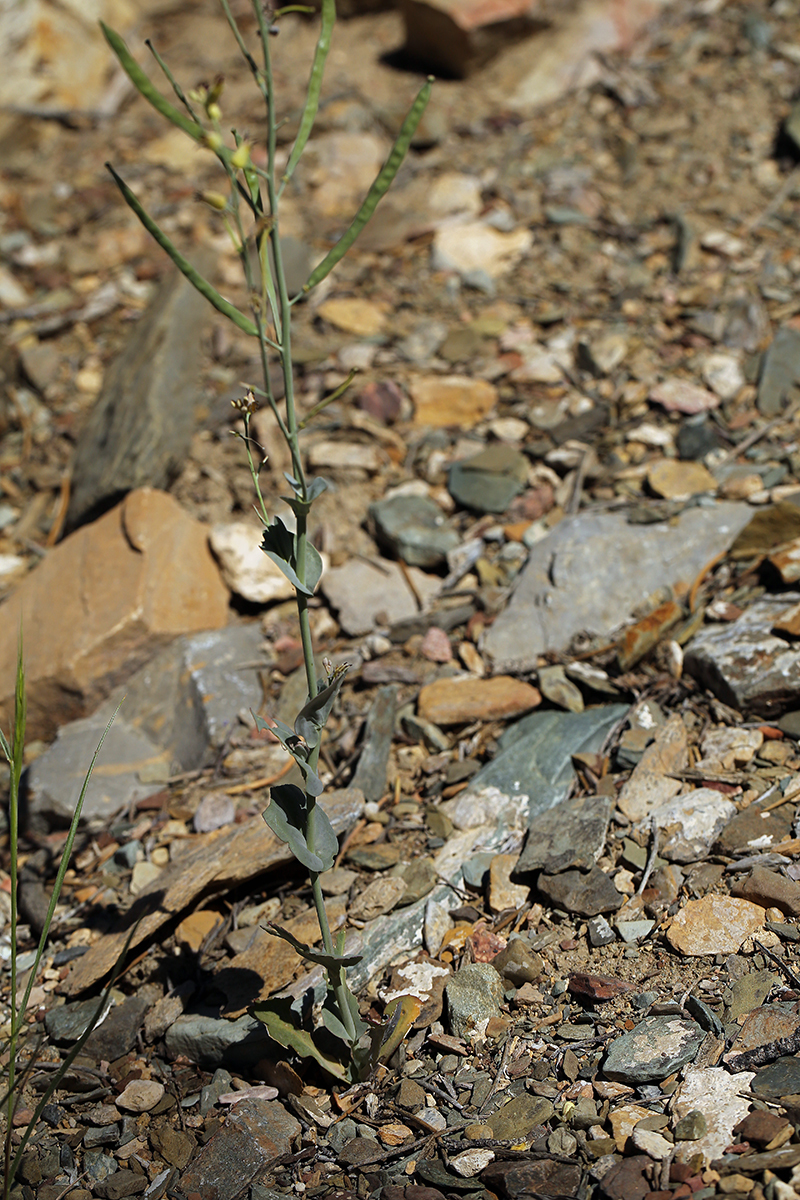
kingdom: Plantae
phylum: Tracheophyta
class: Magnoliopsida
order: Brassicales
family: Brassicaceae
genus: Streptanthus
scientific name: Streptanthus cordatus
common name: Heart-leaf jewel-flower
